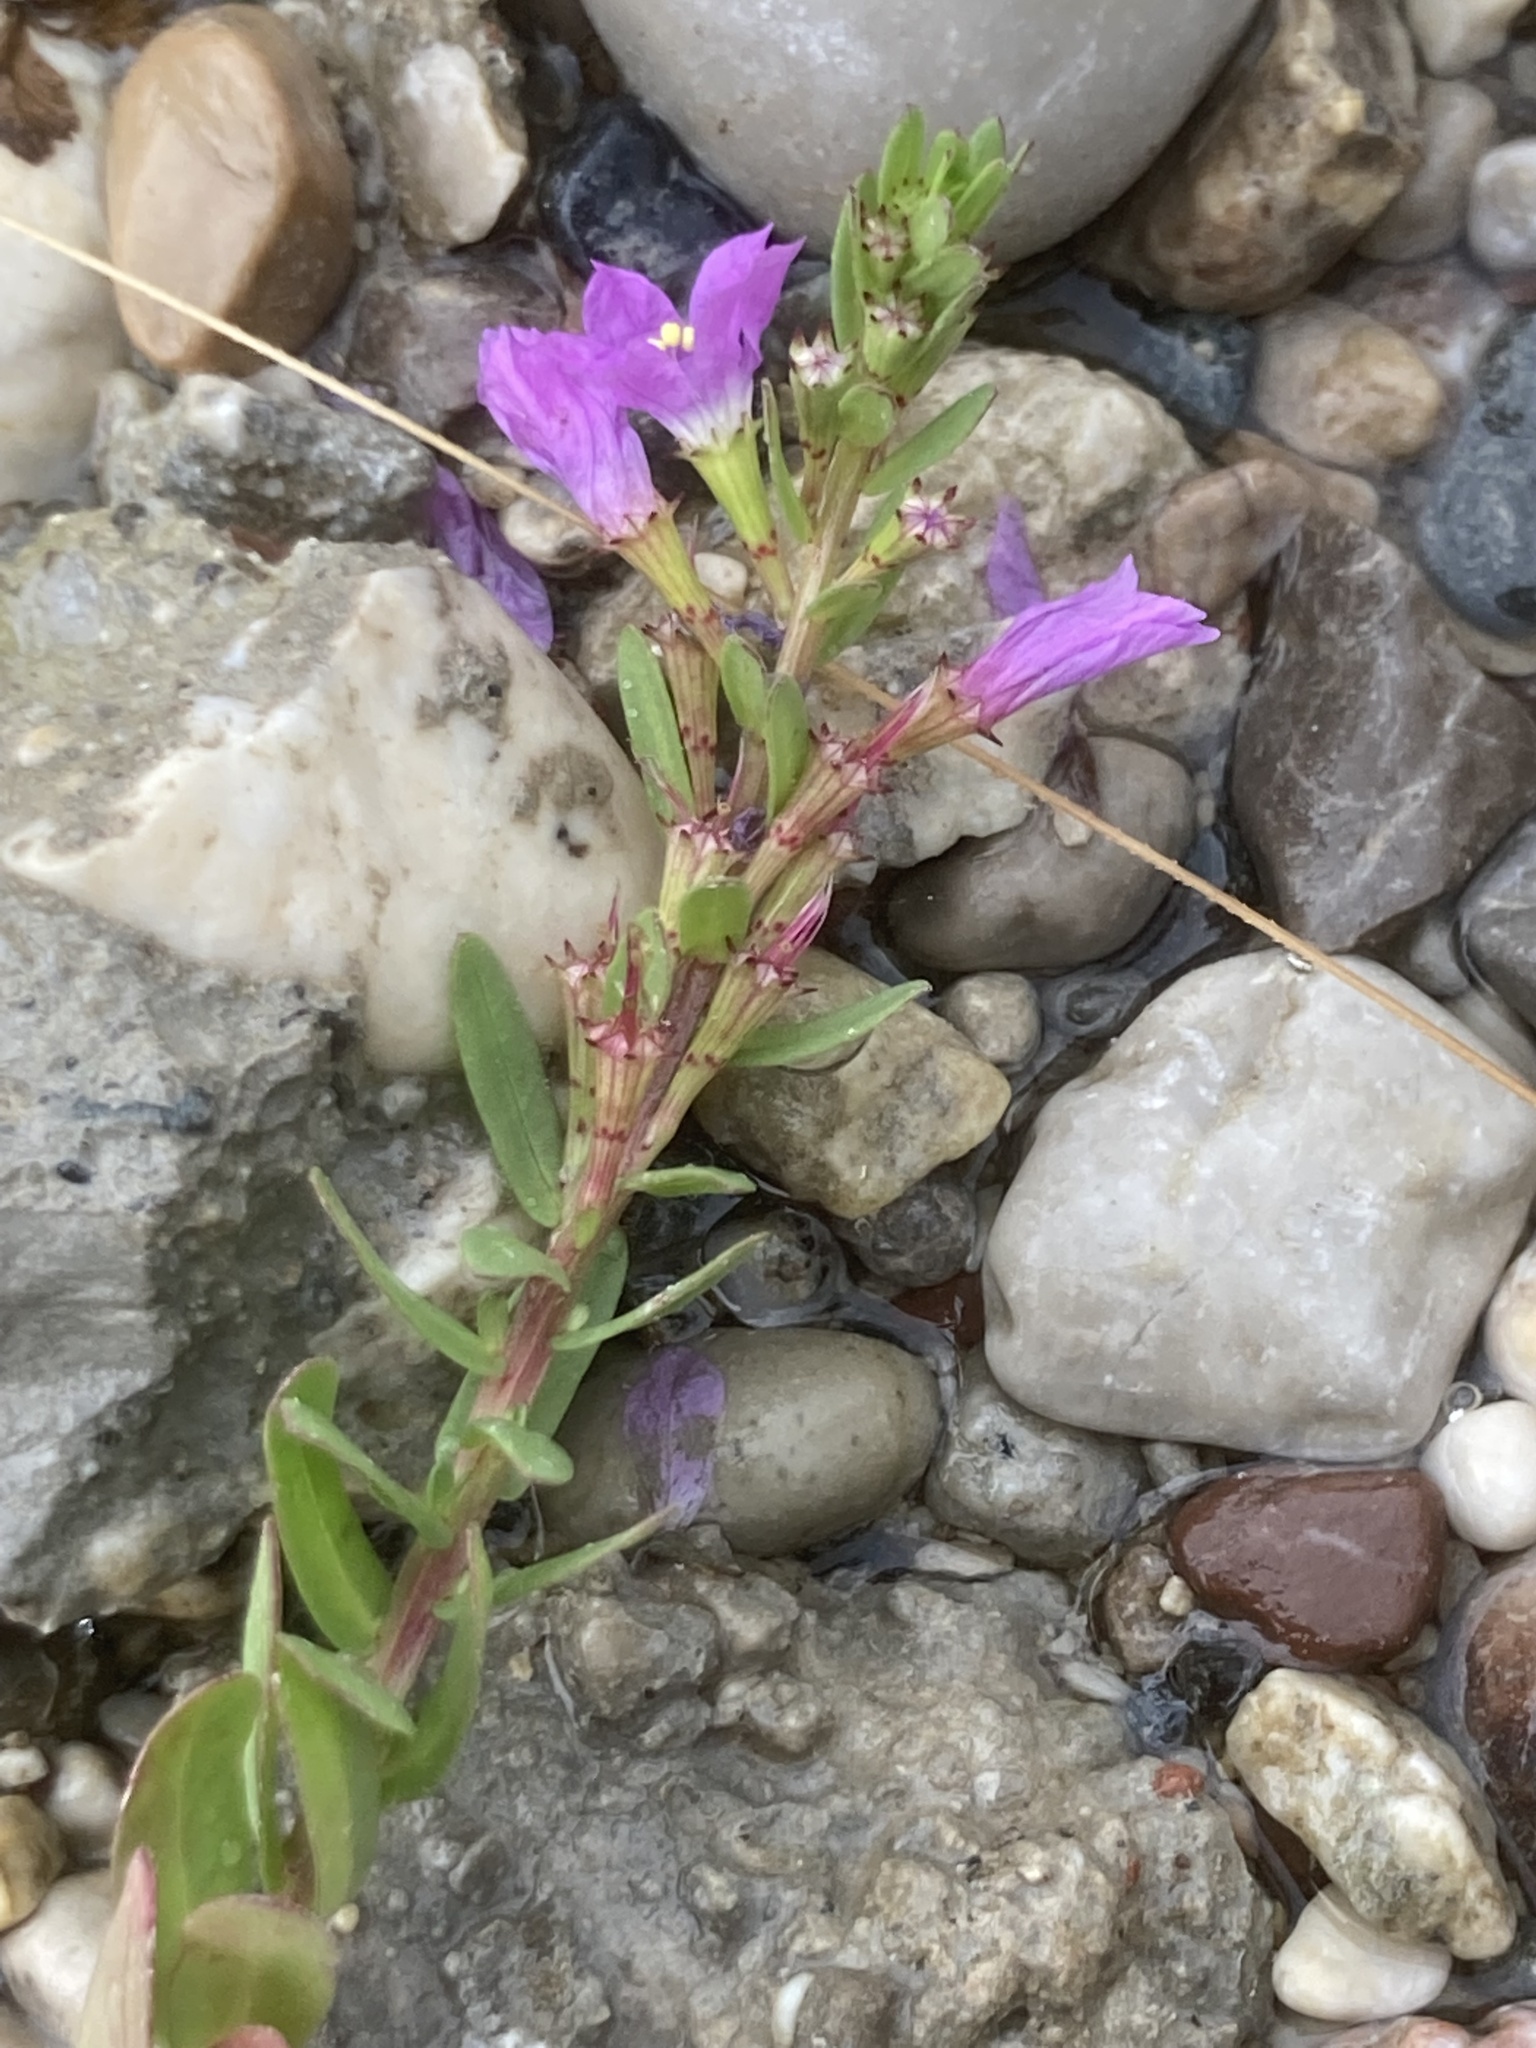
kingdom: Plantae
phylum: Tracheophyta
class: Magnoliopsida
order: Myrtales
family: Lythraceae
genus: Lythrum
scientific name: Lythrum junceum
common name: False grass-poly
